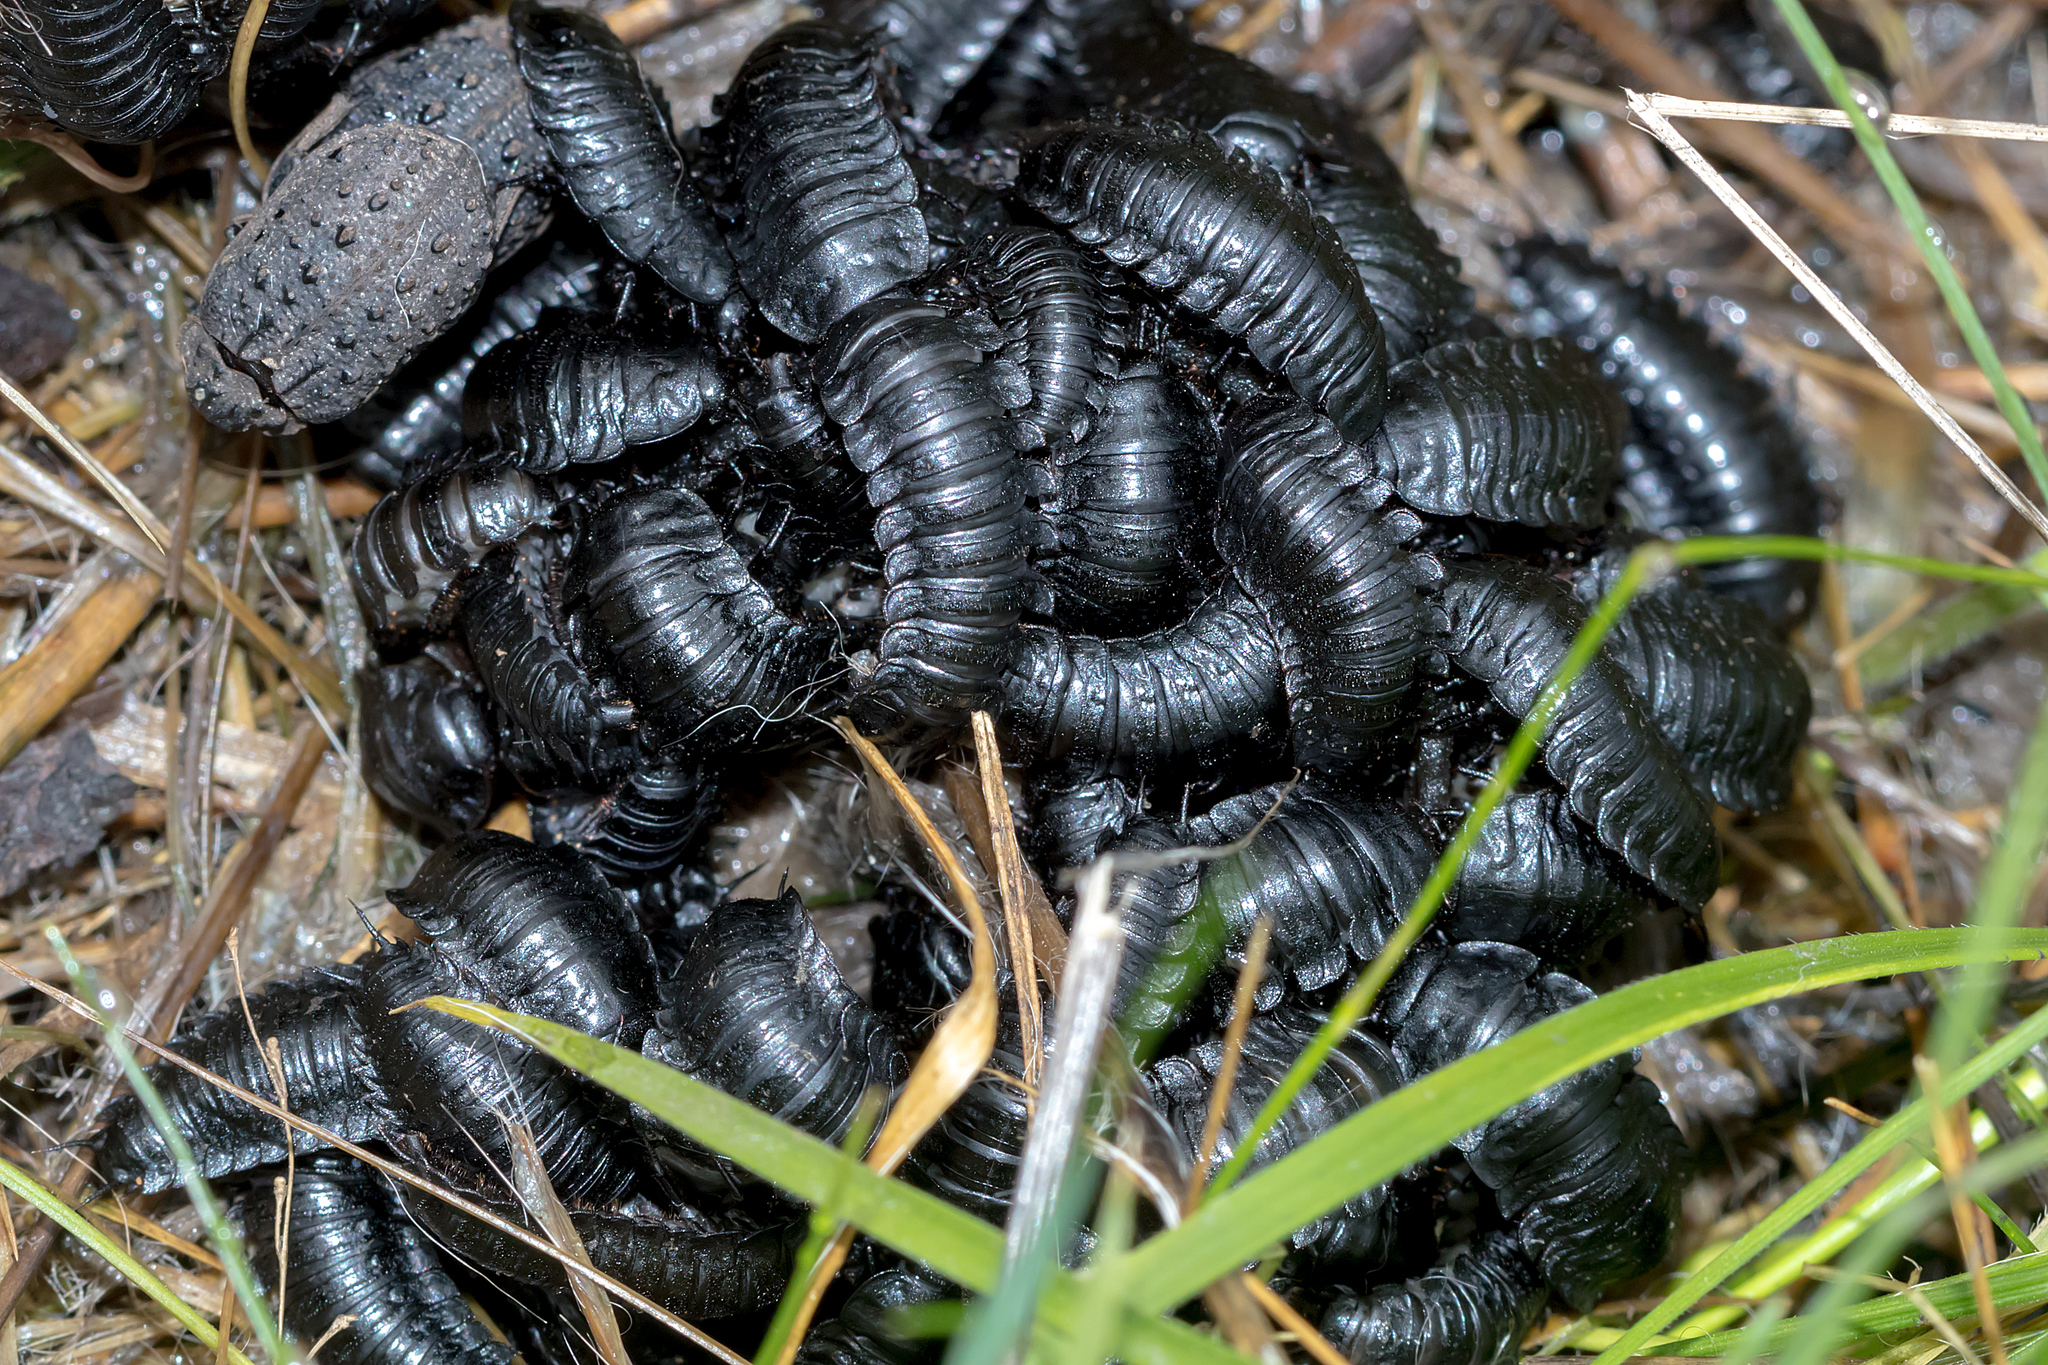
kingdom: Animalia
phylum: Arthropoda
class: Insecta
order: Coleoptera
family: Staphylinidae
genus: Ptomaphila
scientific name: Ptomaphila lacrymosa
